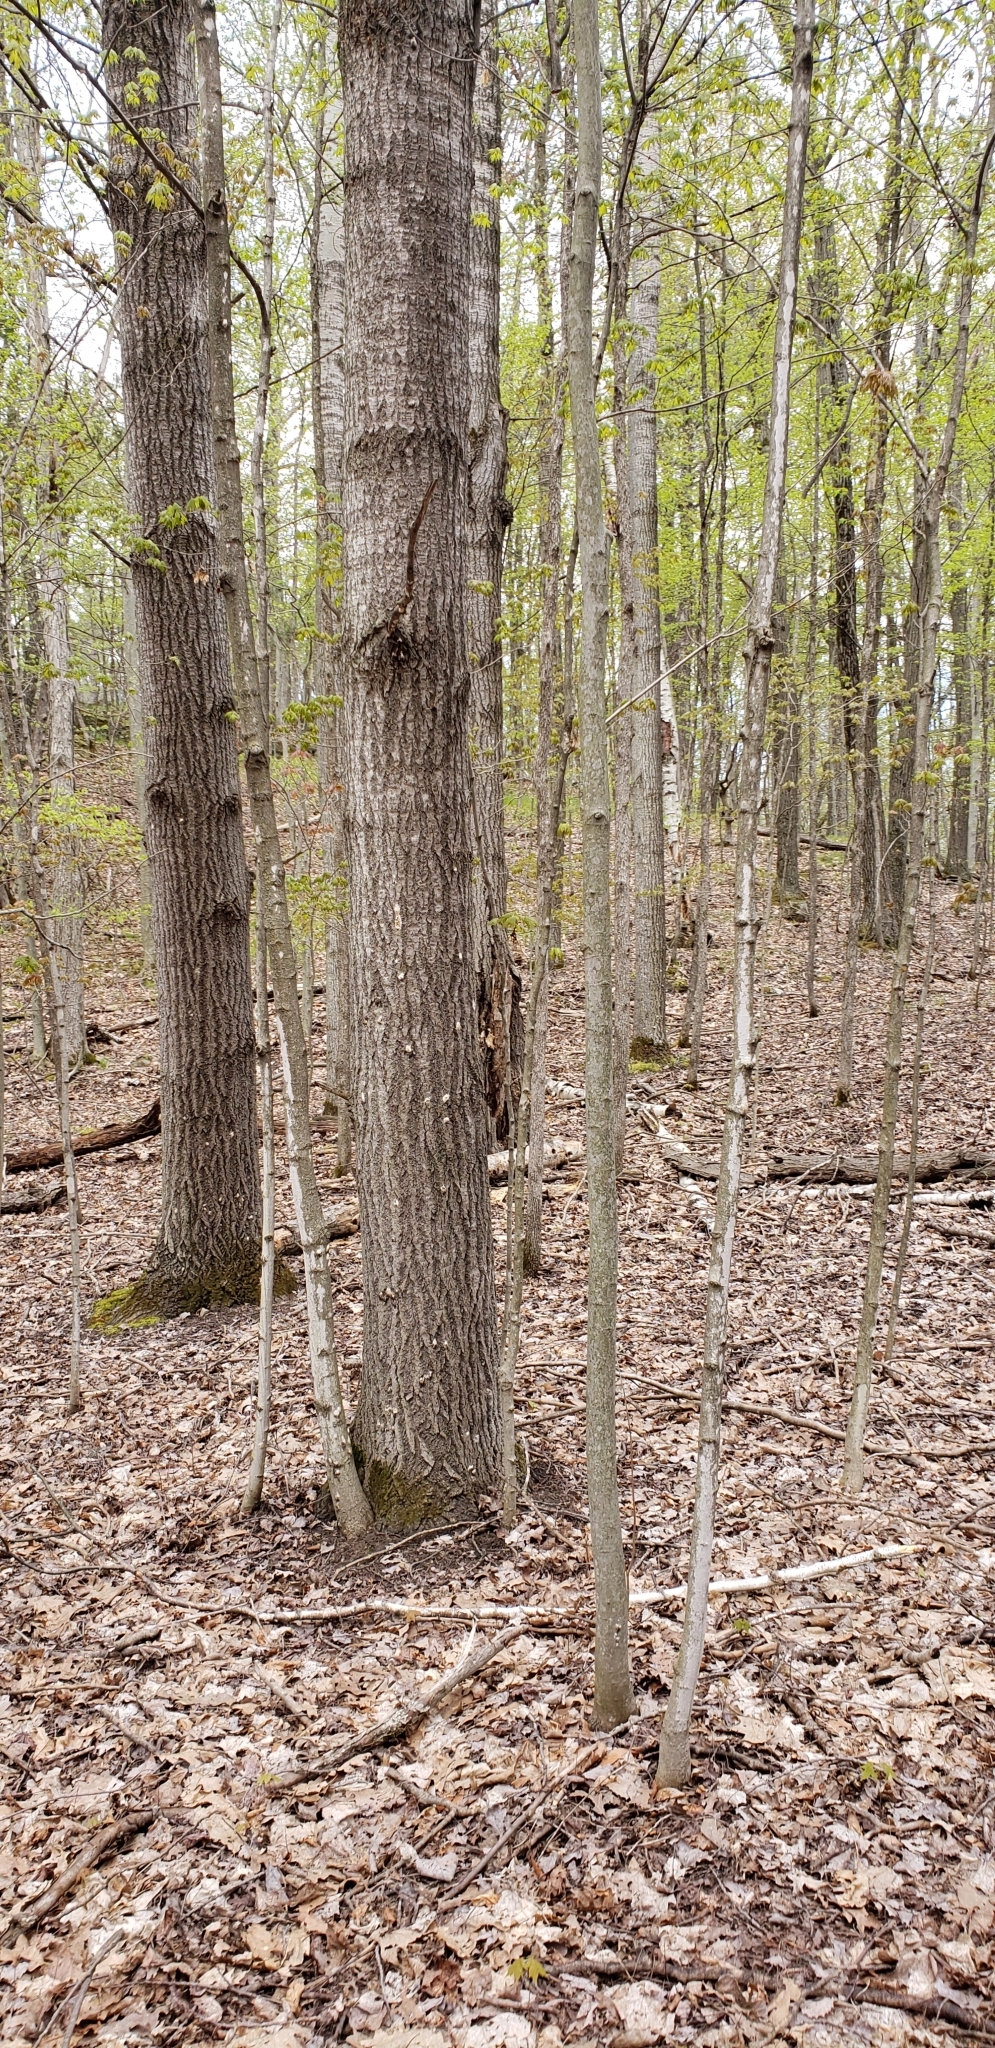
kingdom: Animalia
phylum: Arthropoda
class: Insecta
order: Lepidoptera
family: Erebidae
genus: Lymantria
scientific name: Lymantria dispar
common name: Gypsy moth
